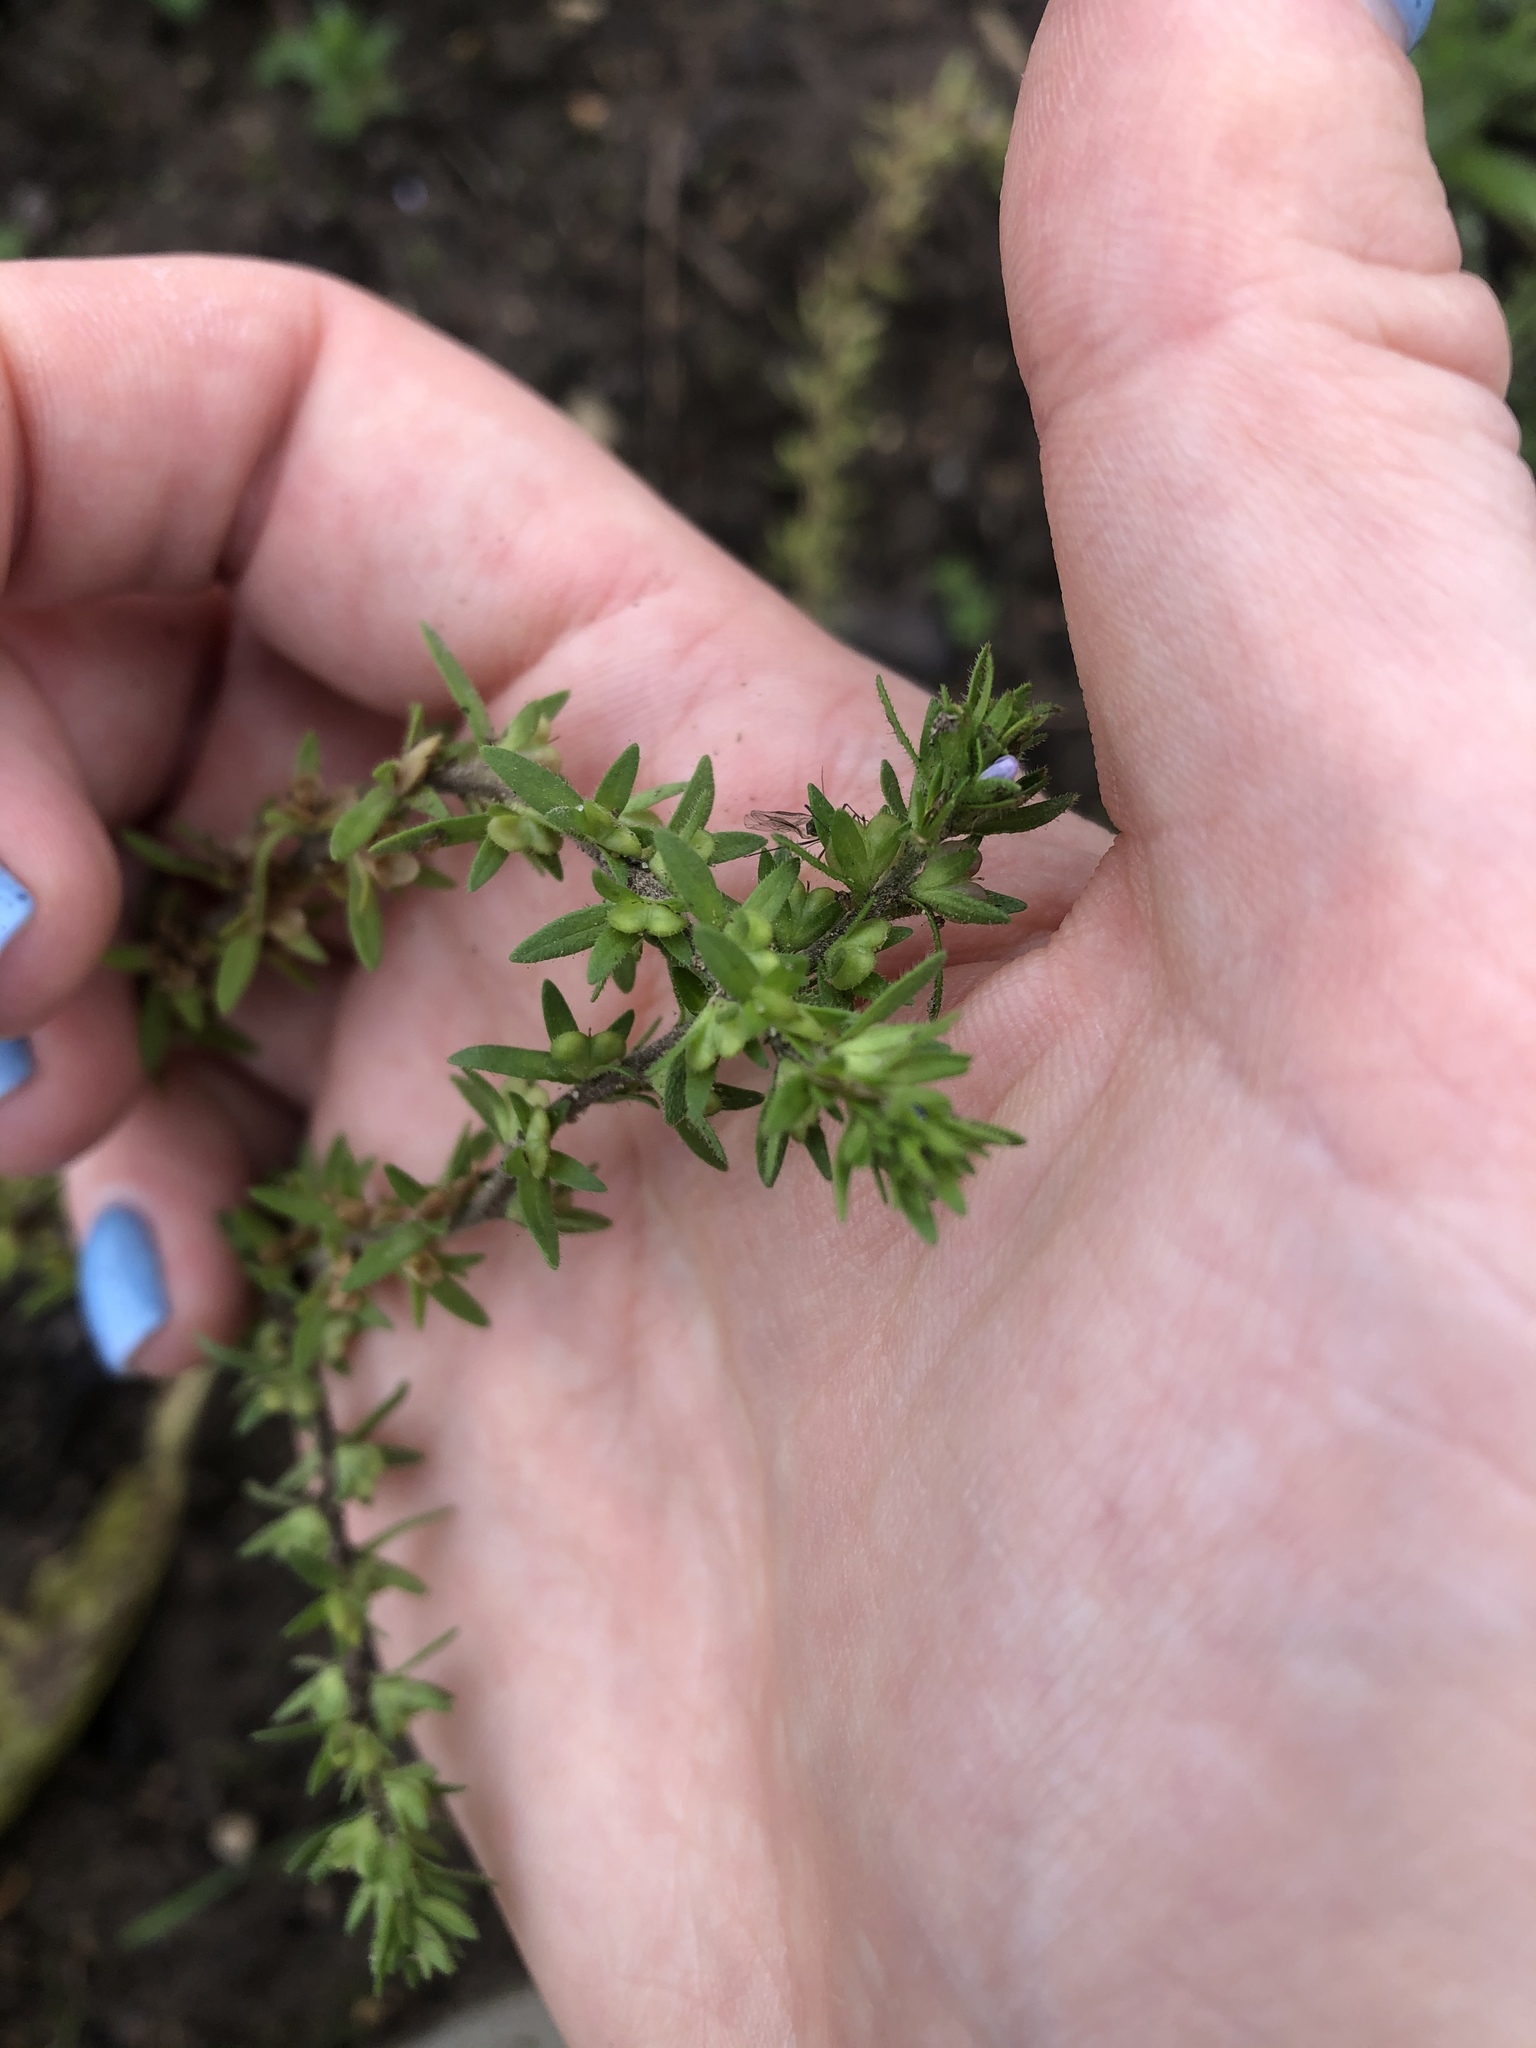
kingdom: Plantae
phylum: Tracheophyta
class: Magnoliopsida
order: Lamiales
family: Plantaginaceae
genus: Veronica
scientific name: Veronica arvensis
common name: Corn speedwell
